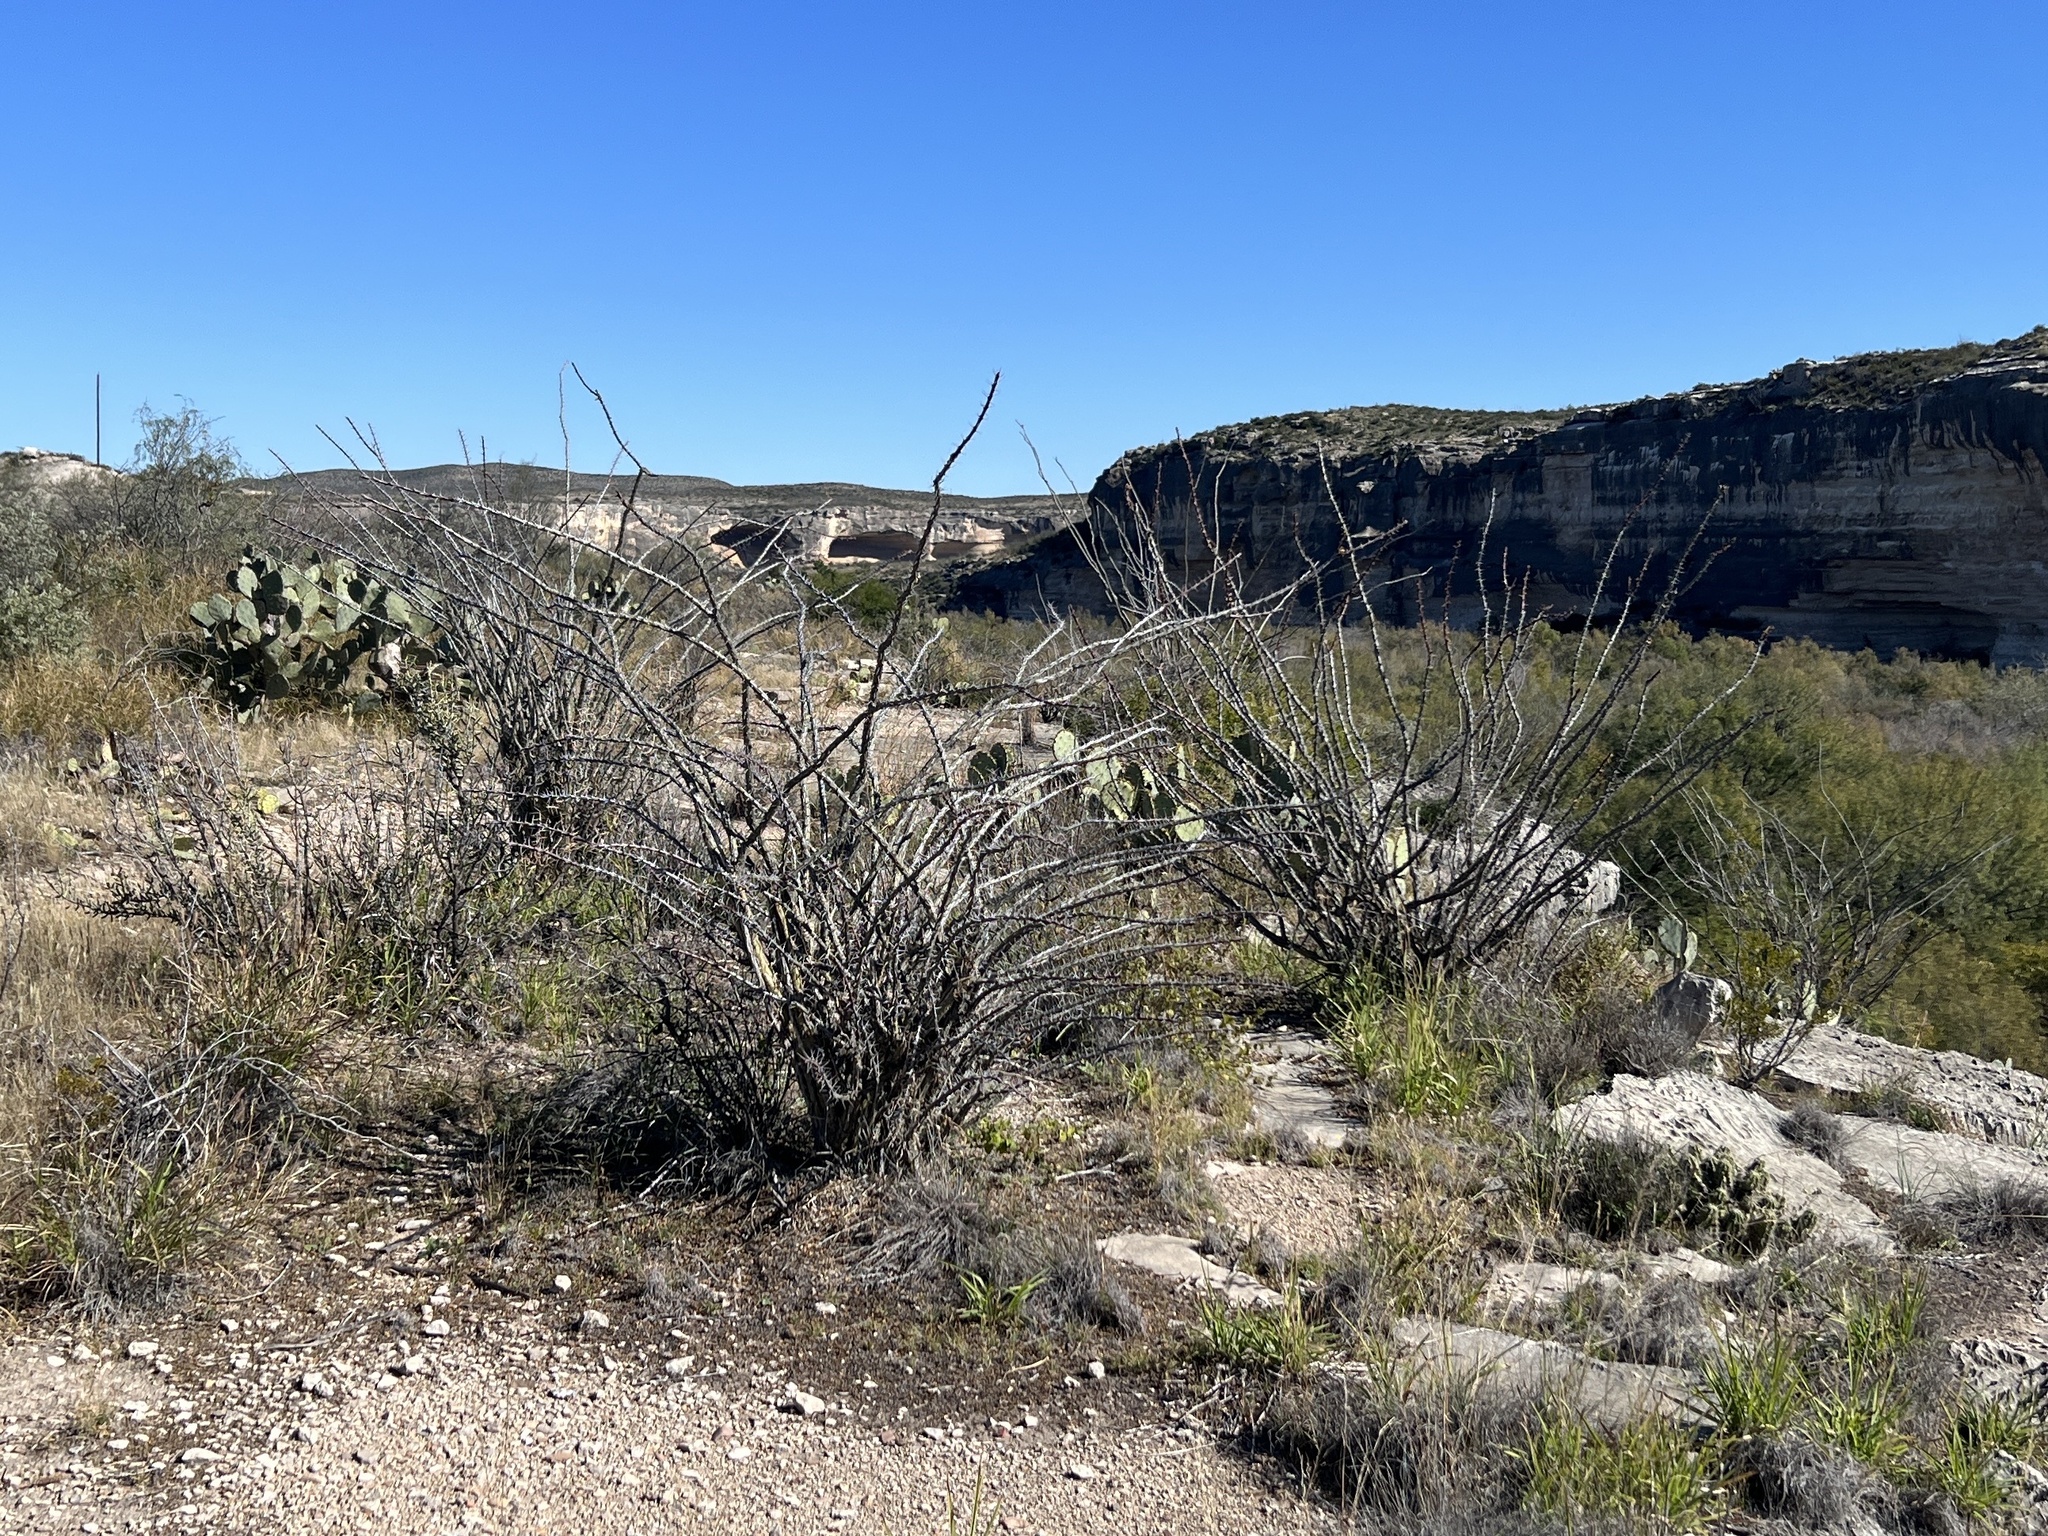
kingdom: Plantae
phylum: Tracheophyta
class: Magnoliopsida
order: Ericales
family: Fouquieriaceae
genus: Fouquieria
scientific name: Fouquieria splendens
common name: Vine-cactus
